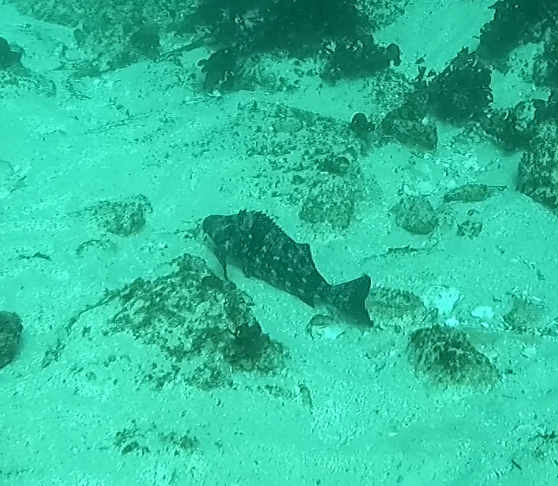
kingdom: Animalia
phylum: Chordata
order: Perciformes
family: Aplodactylidae
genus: Aplodactylus
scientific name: Aplodactylus lophodon
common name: Cockatoo fish
